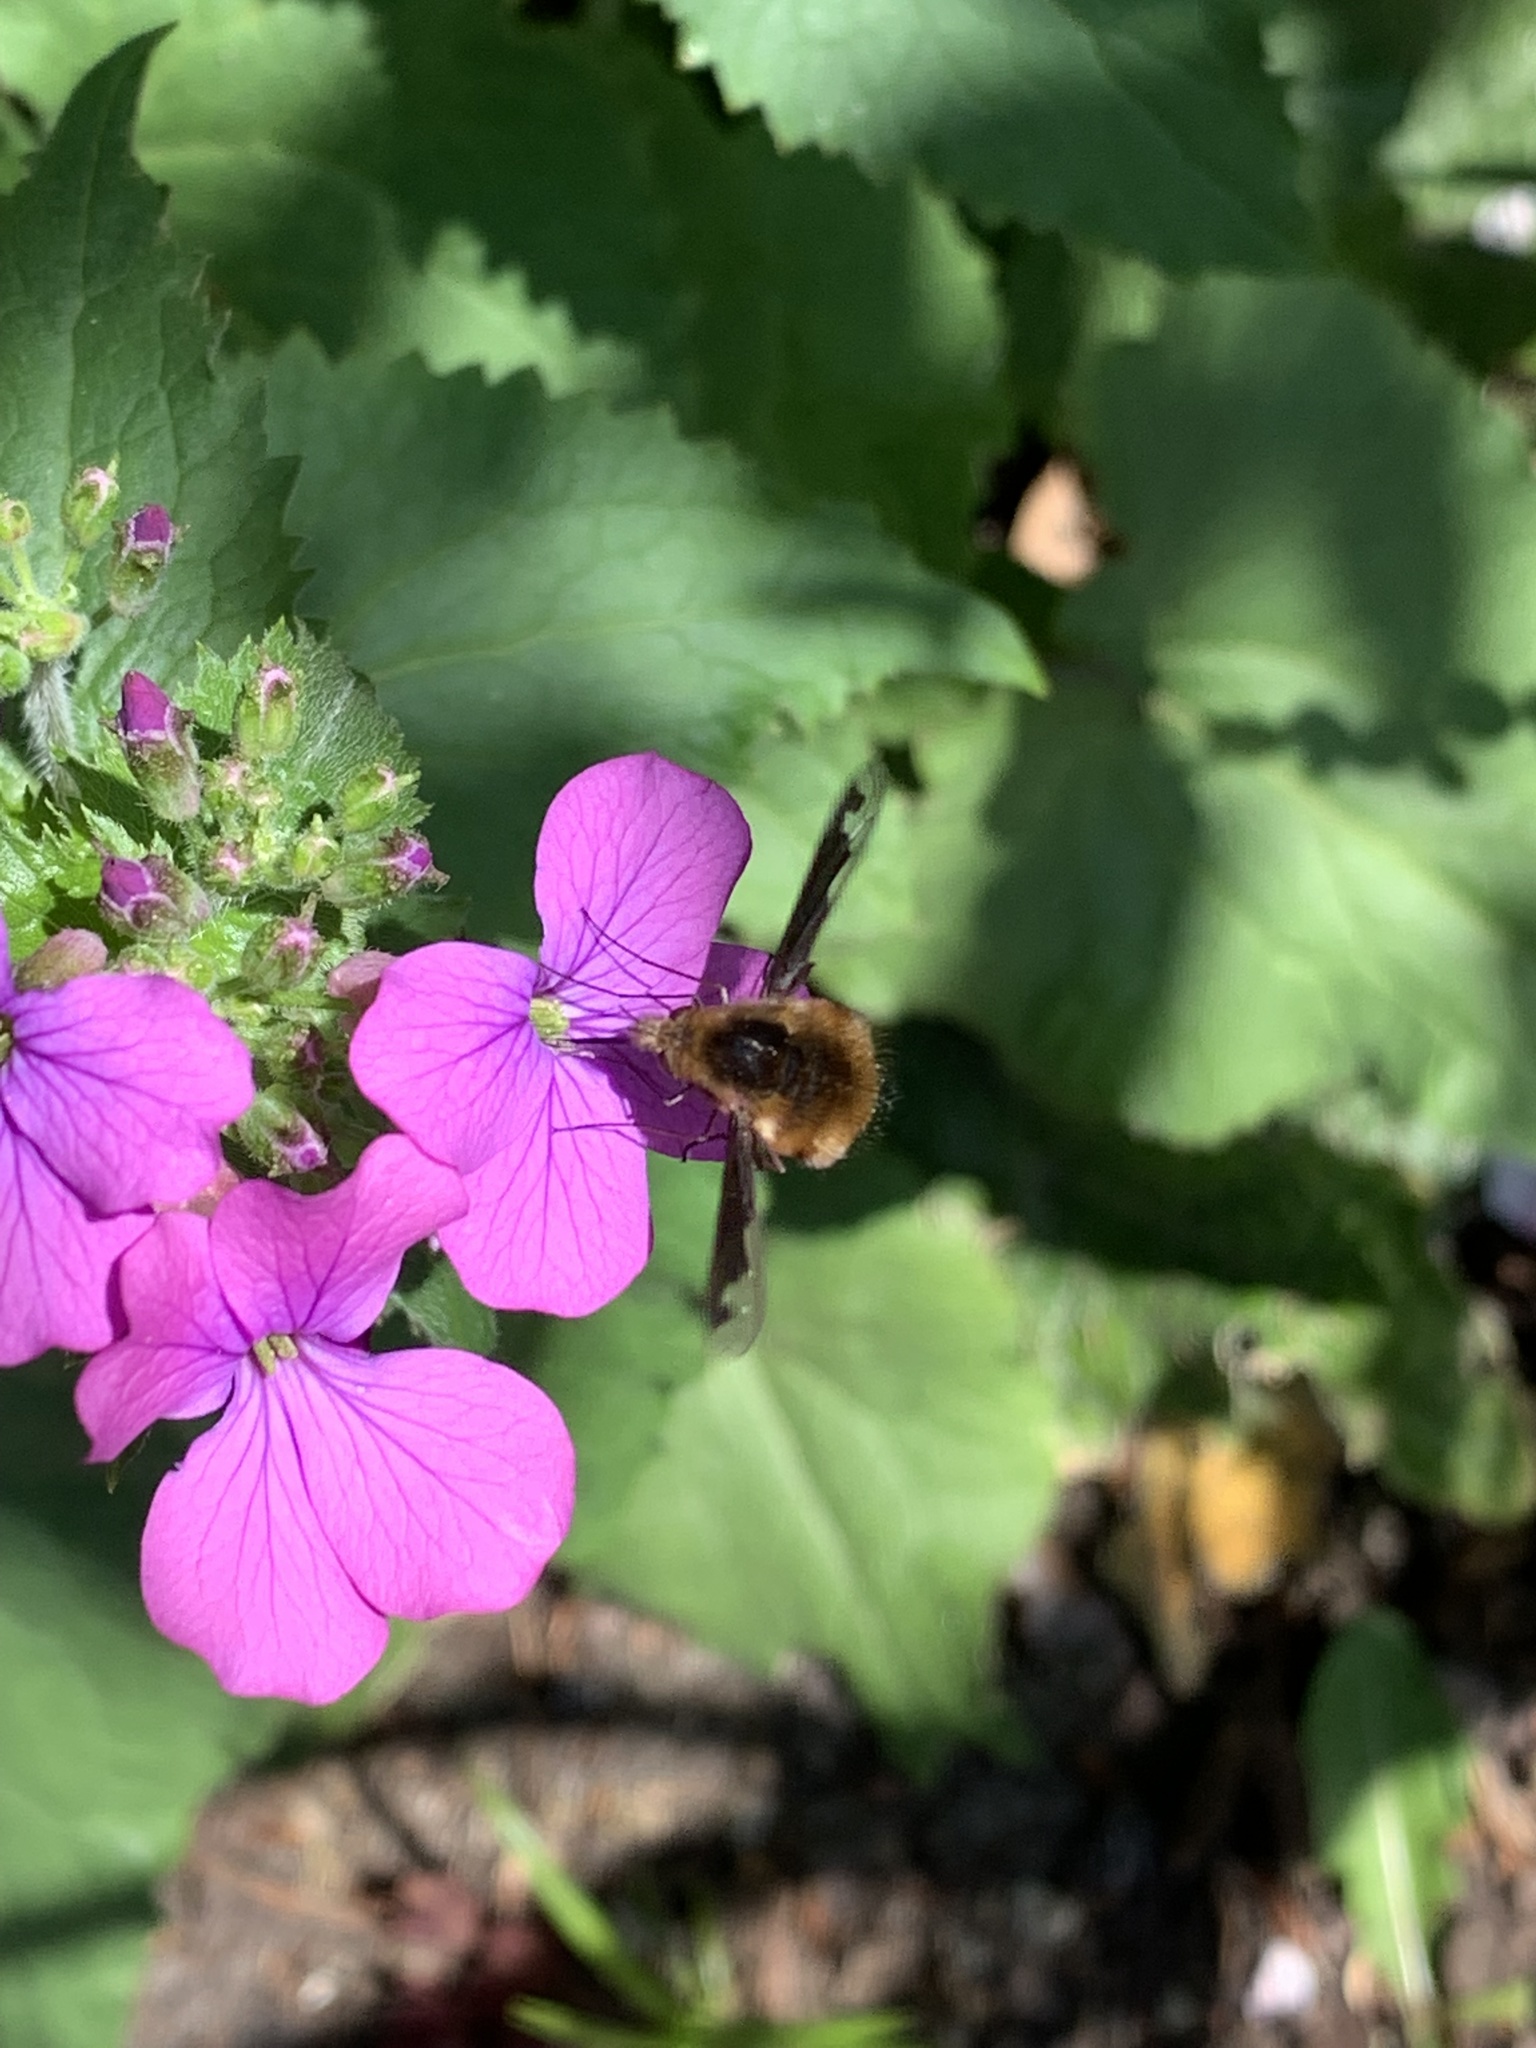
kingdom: Animalia
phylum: Arthropoda
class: Insecta
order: Diptera
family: Bombyliidae
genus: Bombylius
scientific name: Bombylius major
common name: Bee fly
